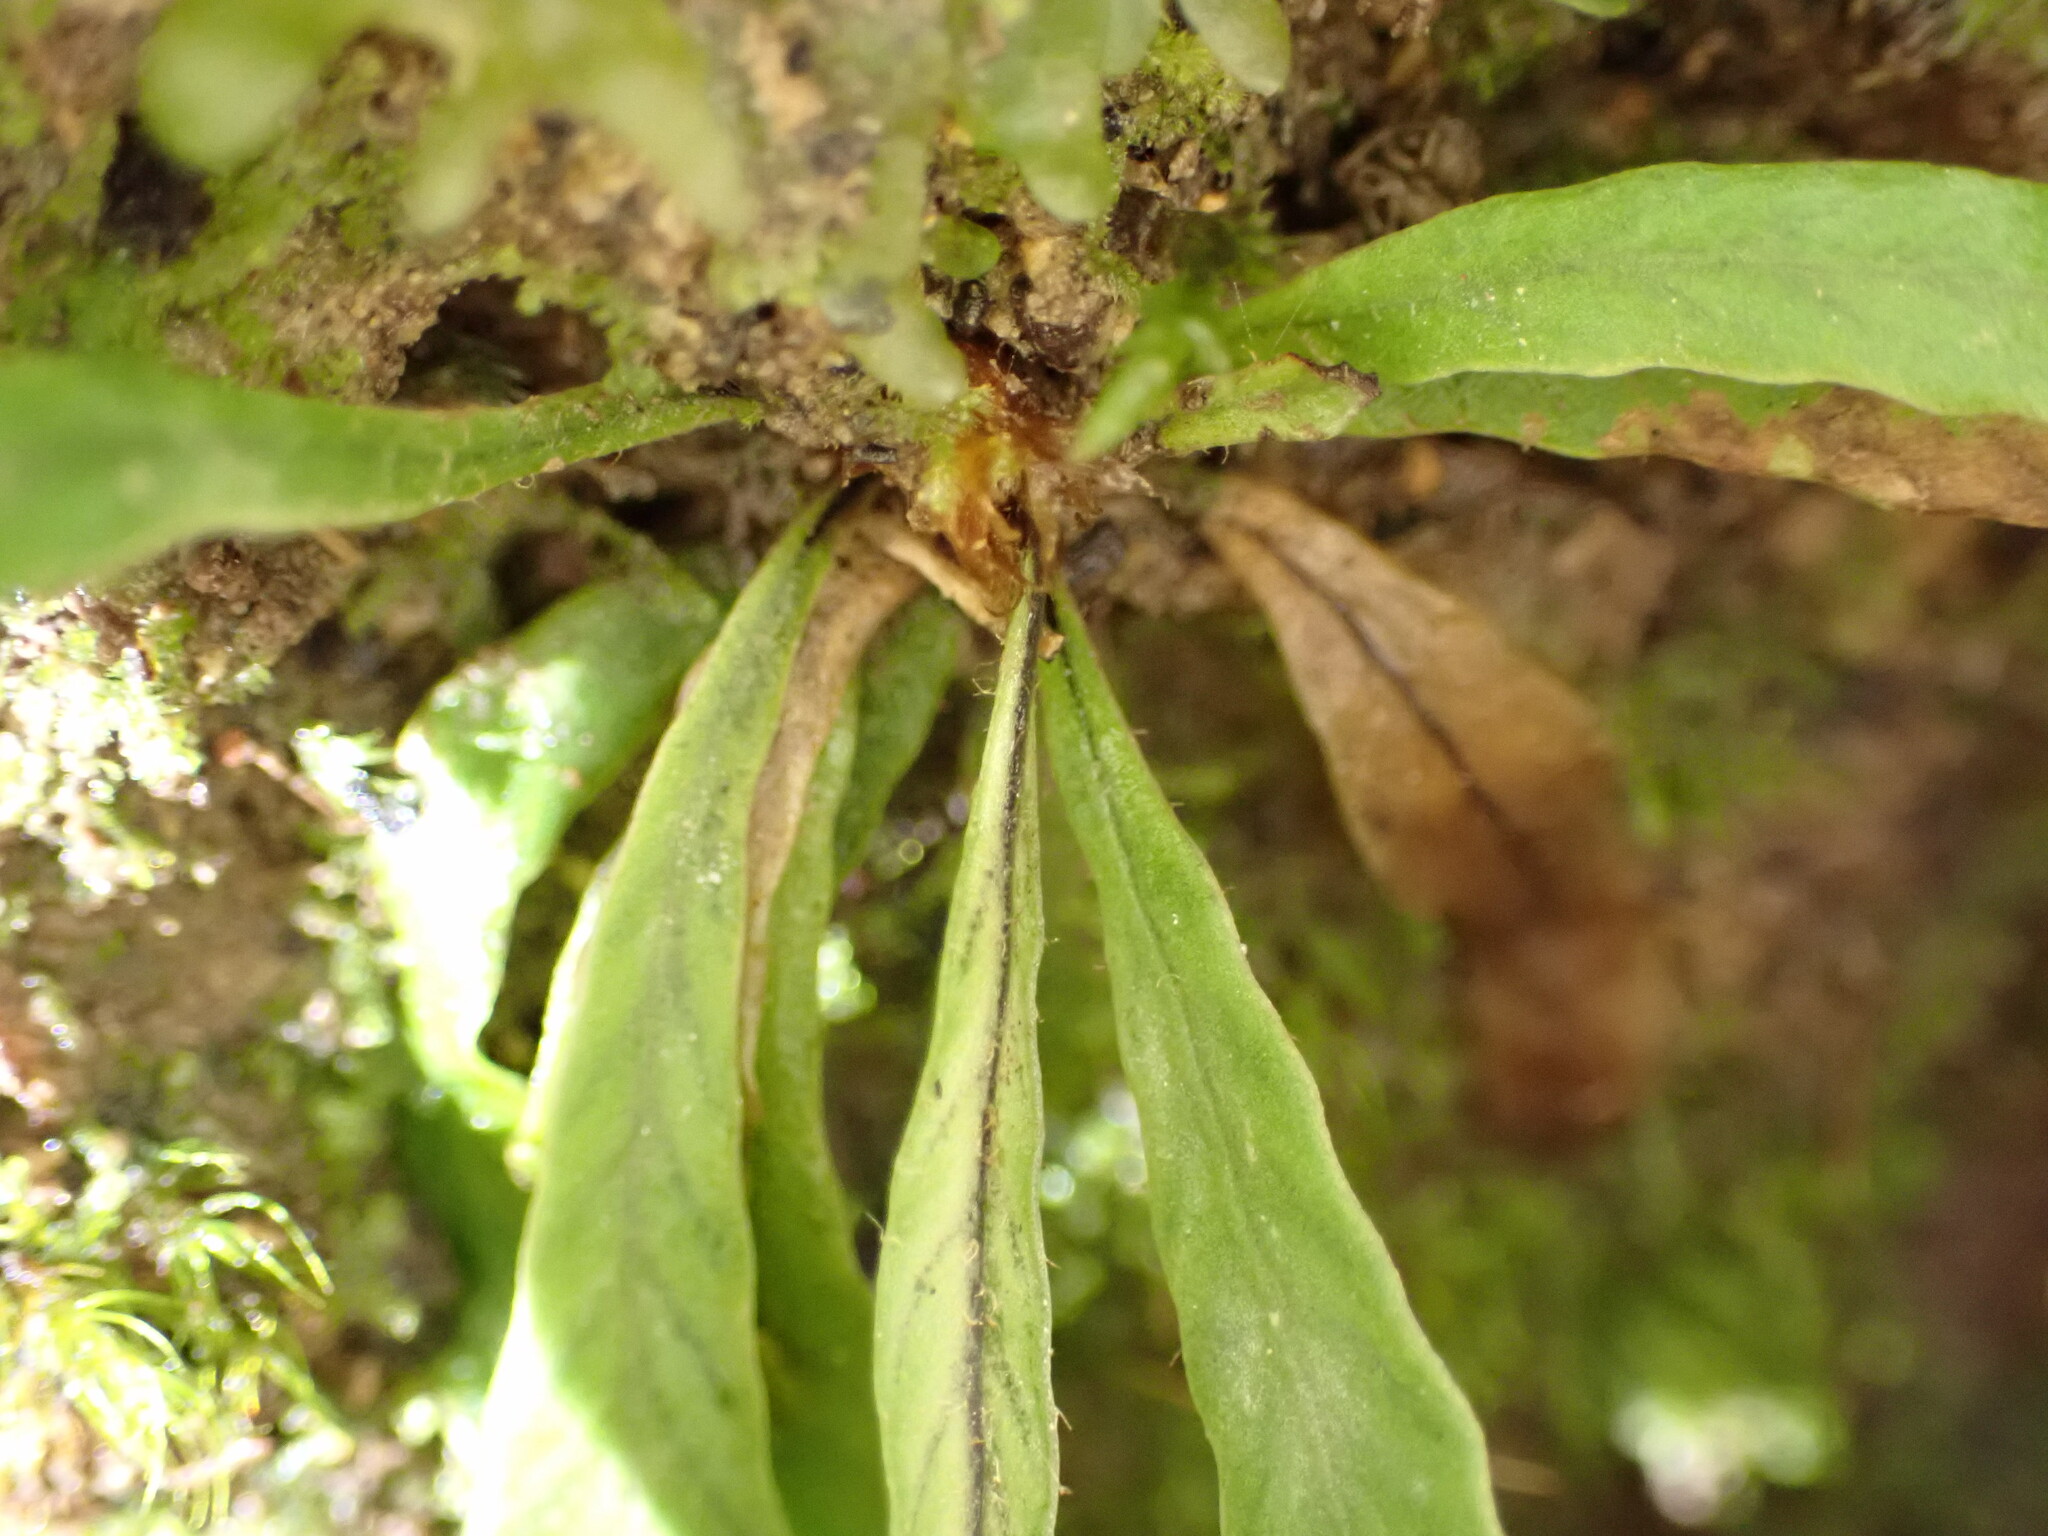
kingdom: Plantae
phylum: Tracheophyta
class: Polypodiopsida
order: Polypodiales
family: Polypodiaceae
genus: Notogrammitis
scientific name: Notogrammitis billardierei
